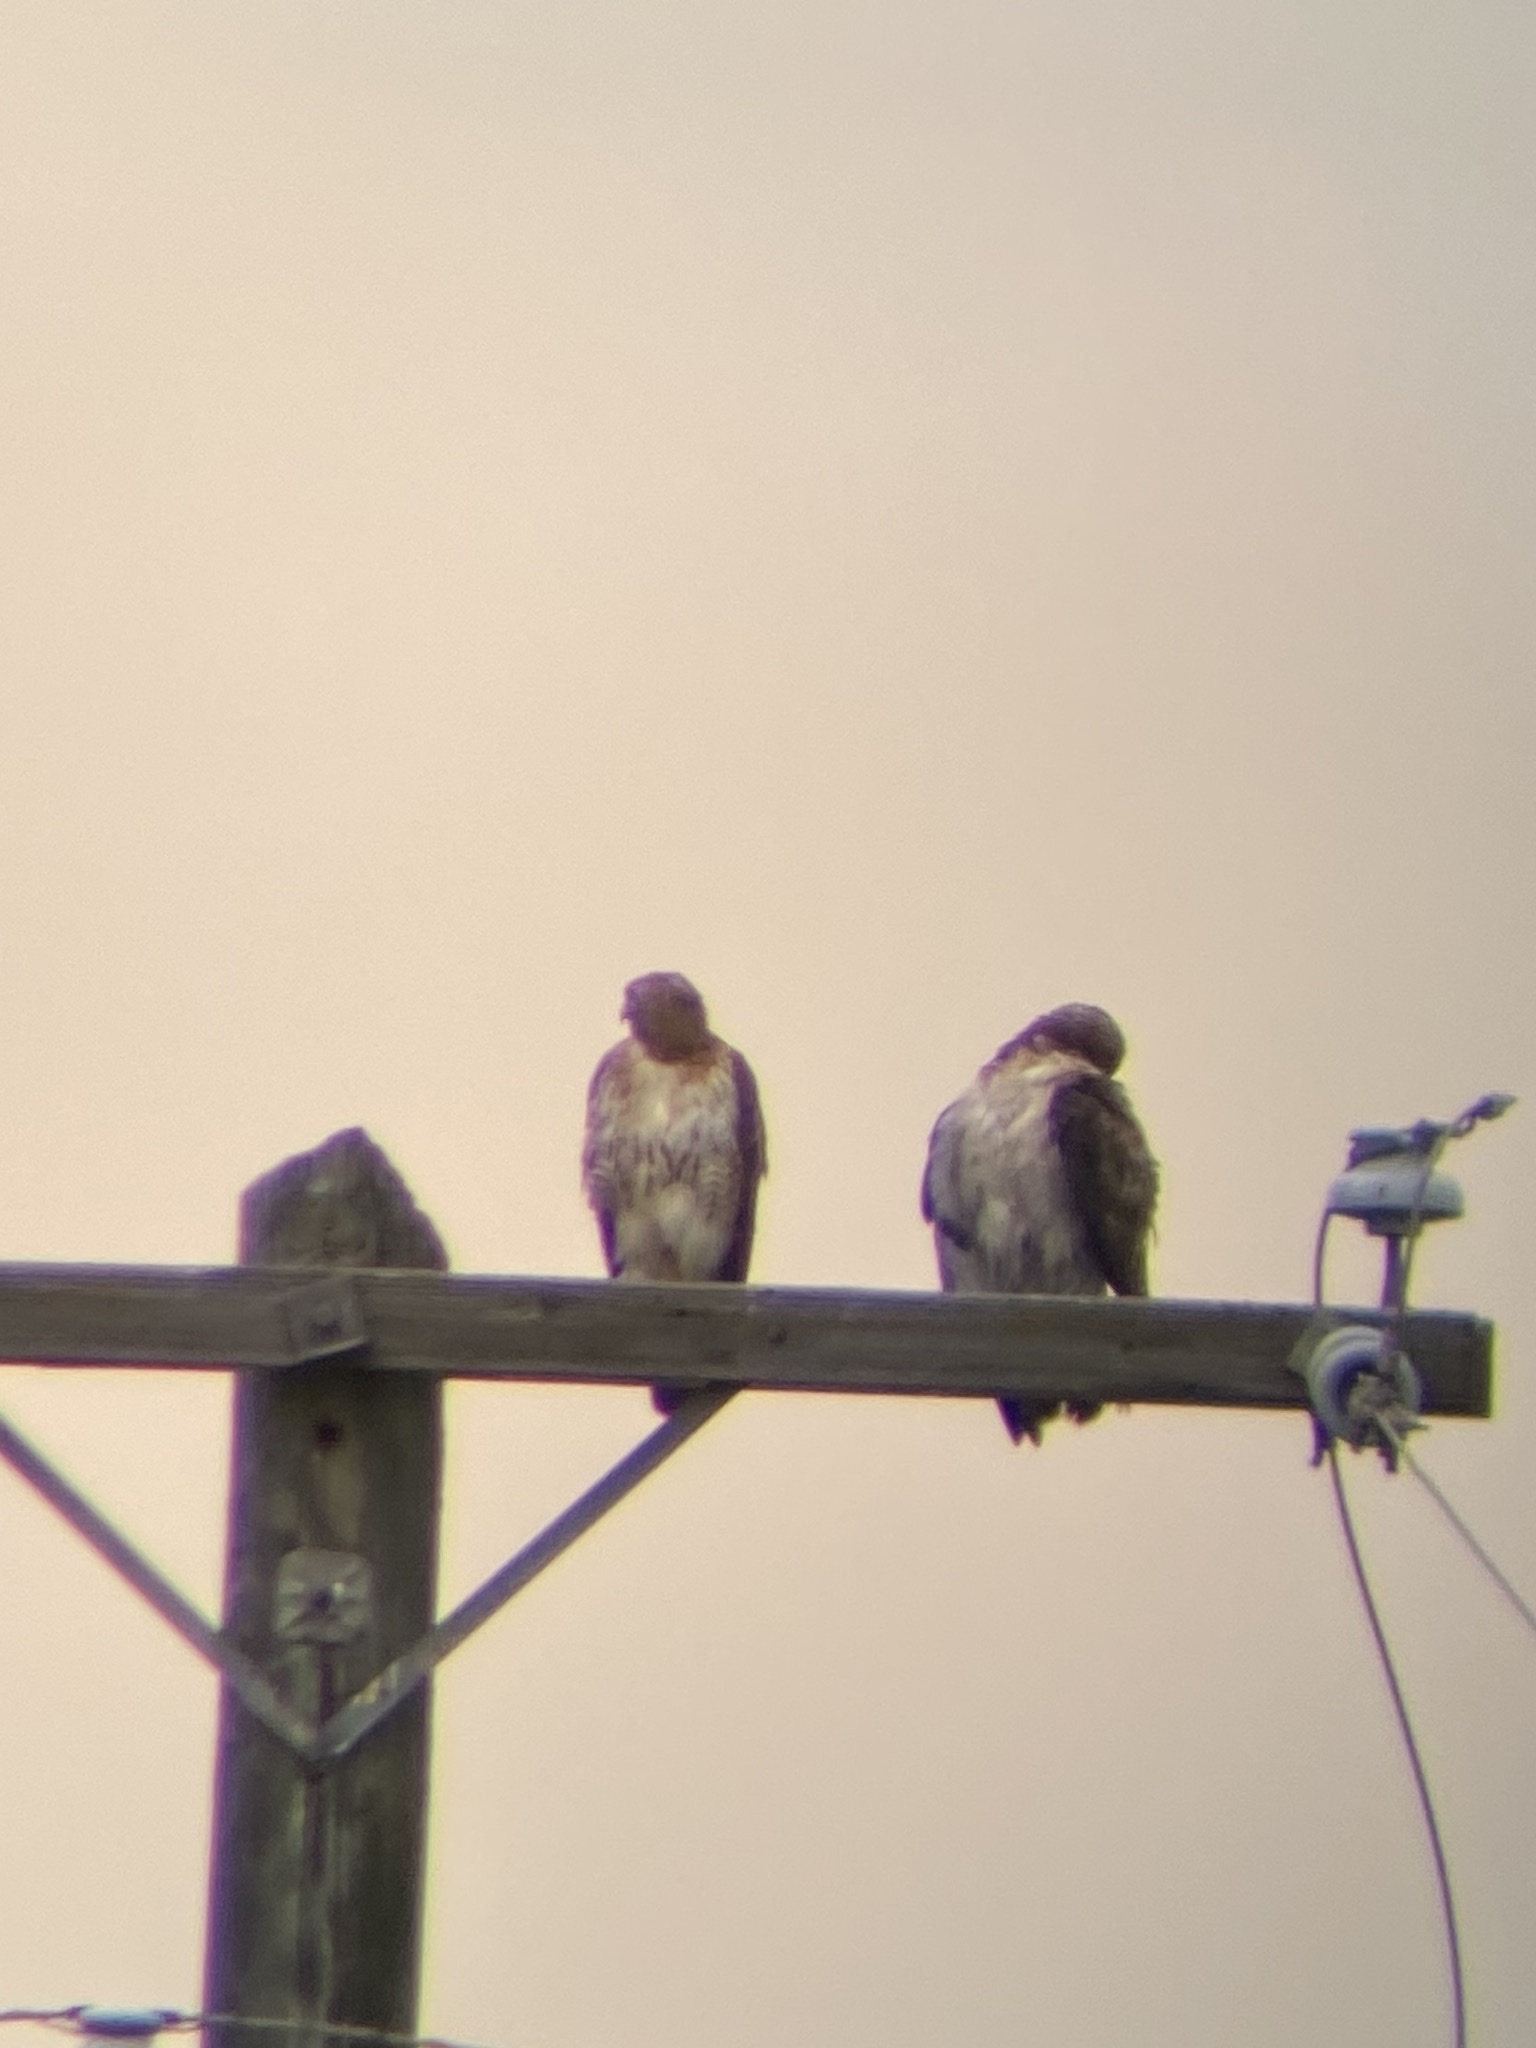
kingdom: Animalia
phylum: Chordata
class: Aves
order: Accipitriformes
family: Accipitridae
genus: Buteo
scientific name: Buteo jamaicensis
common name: Red-tailed hawk
